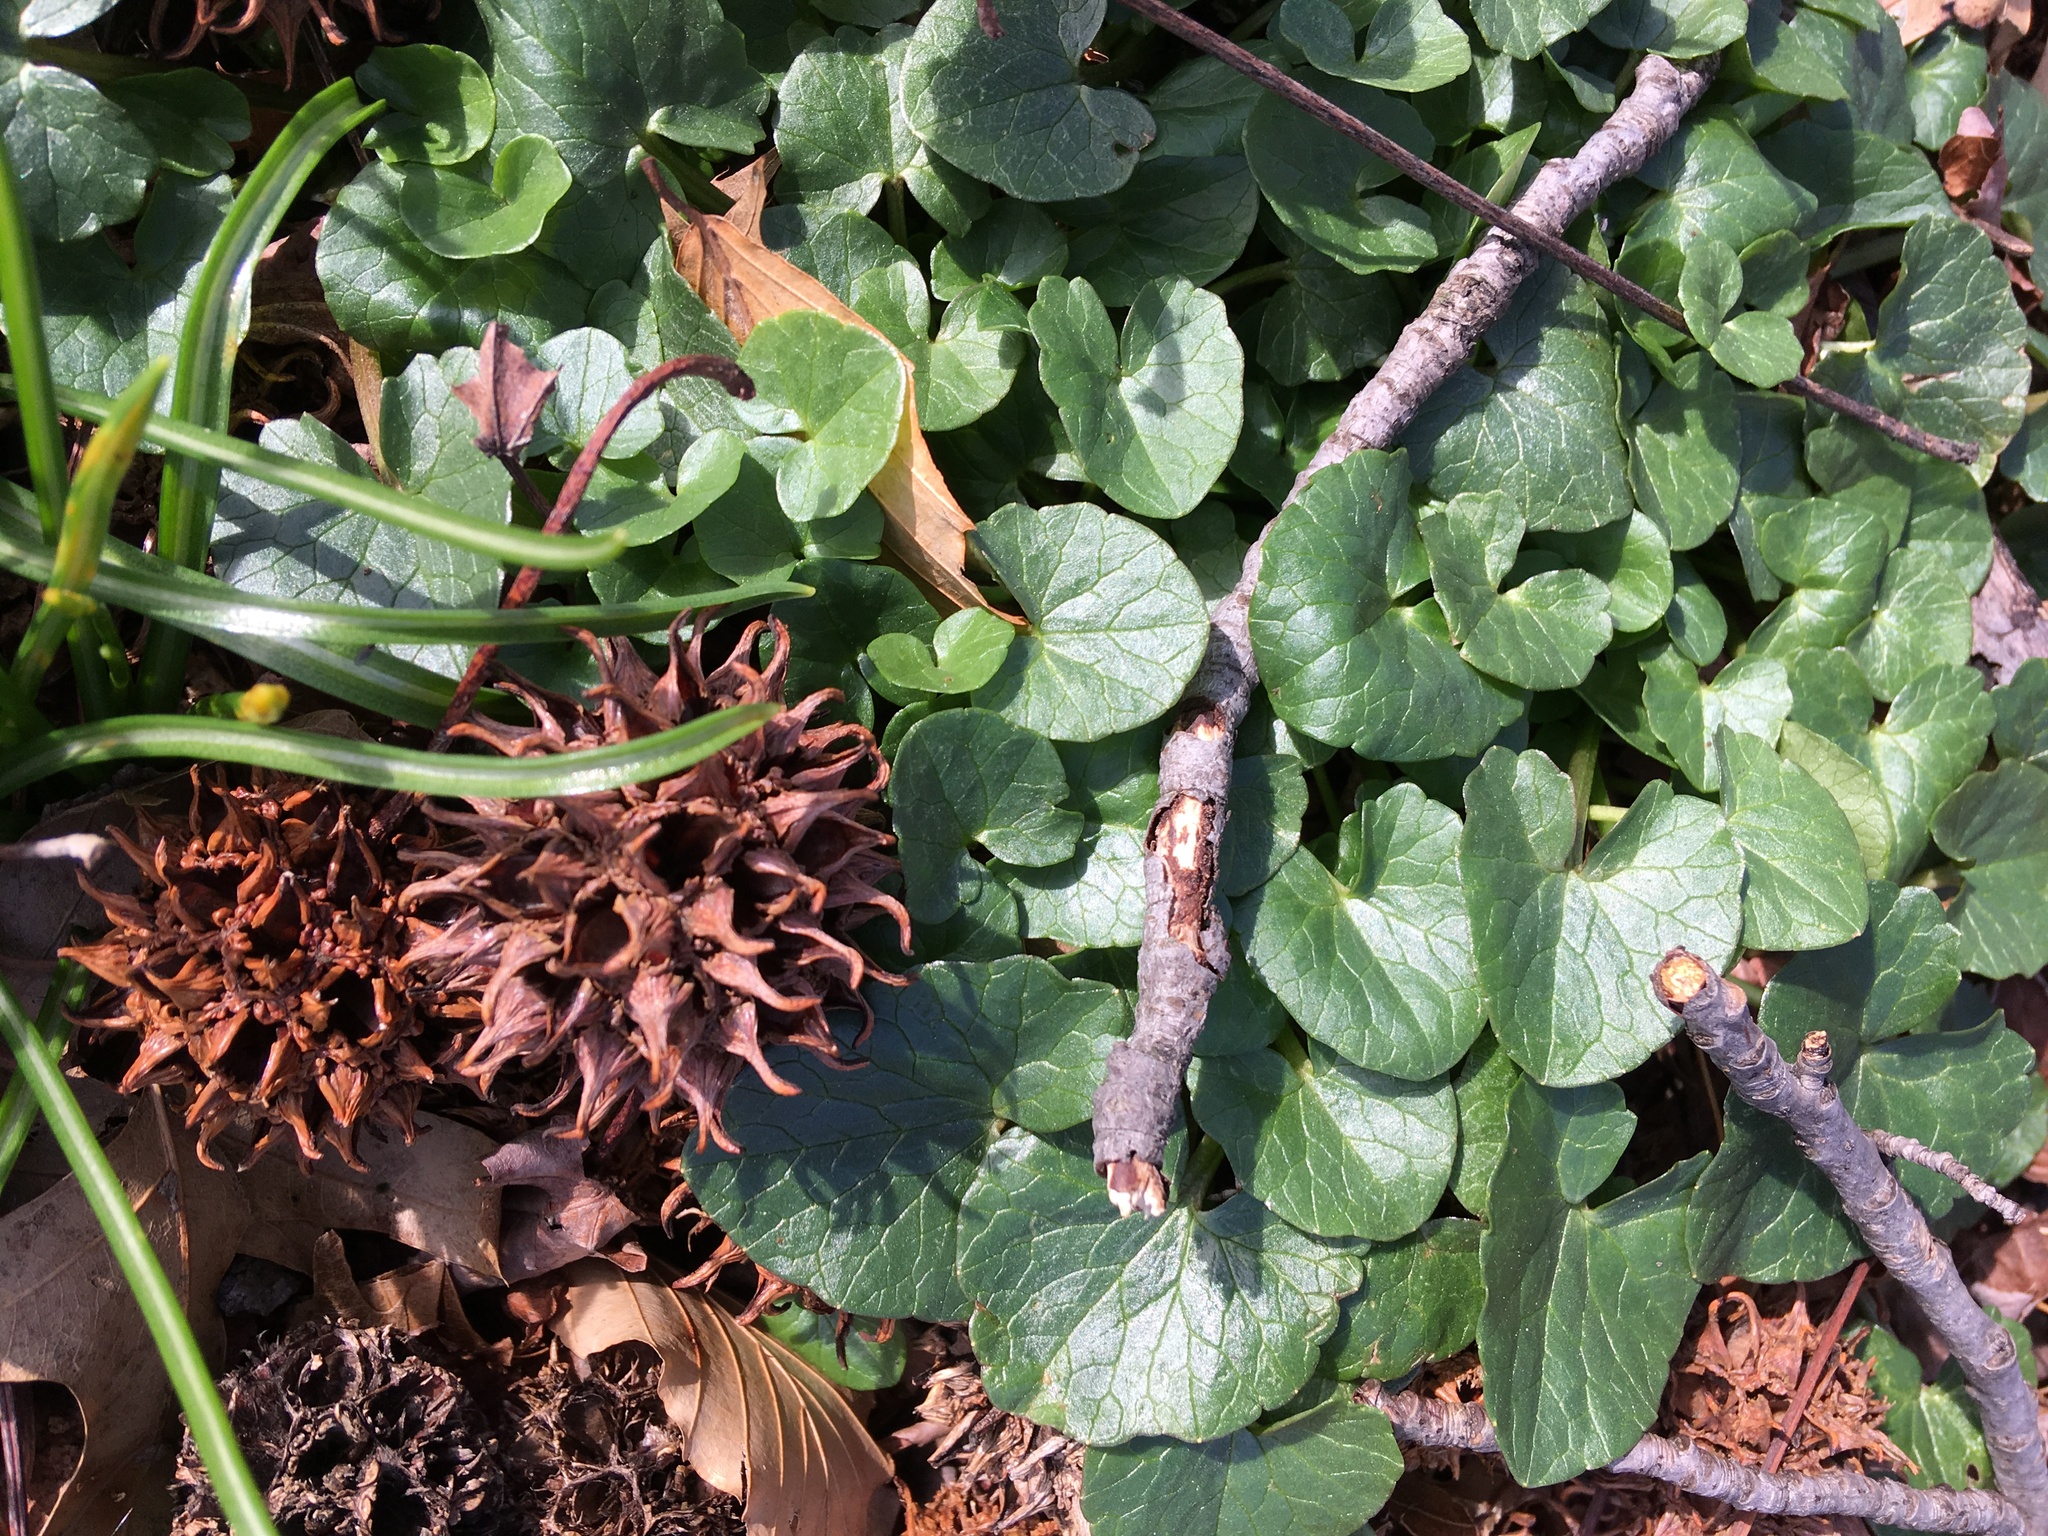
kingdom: Plantae
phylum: Tracheophyta
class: Magnoliopsida
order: Ranunculales
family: Ranunculaceae
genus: Ficaria
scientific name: Ficaria verna
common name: Lesser celandine
